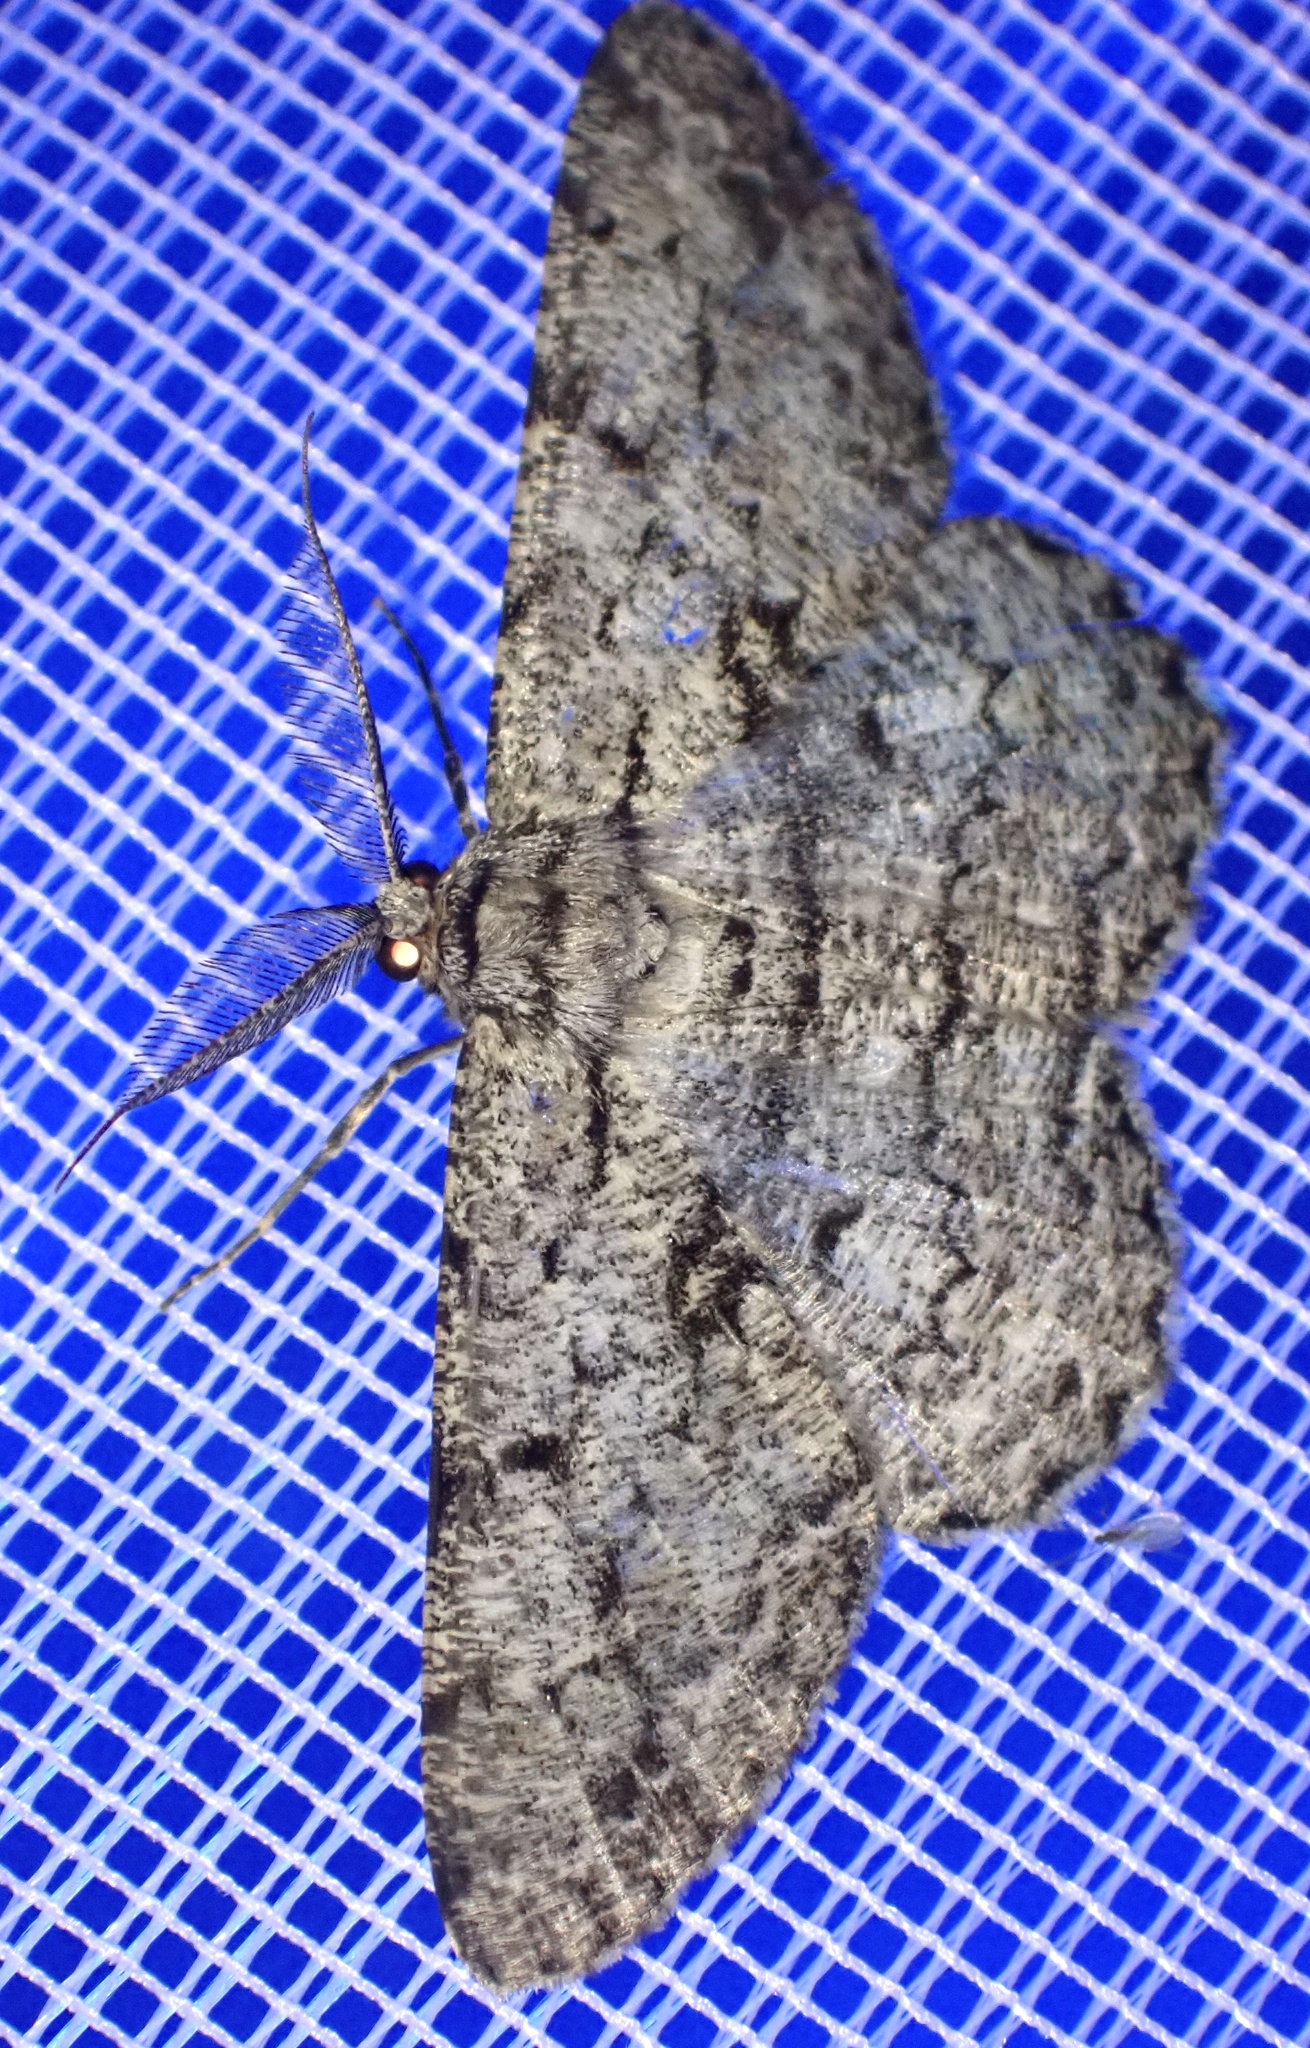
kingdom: Animalia
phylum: Arthropoda
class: Insecta
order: Lepidoptera
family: Geometridae
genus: Hypomecis
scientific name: Hypomecis roboraria
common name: Great oak beauty
